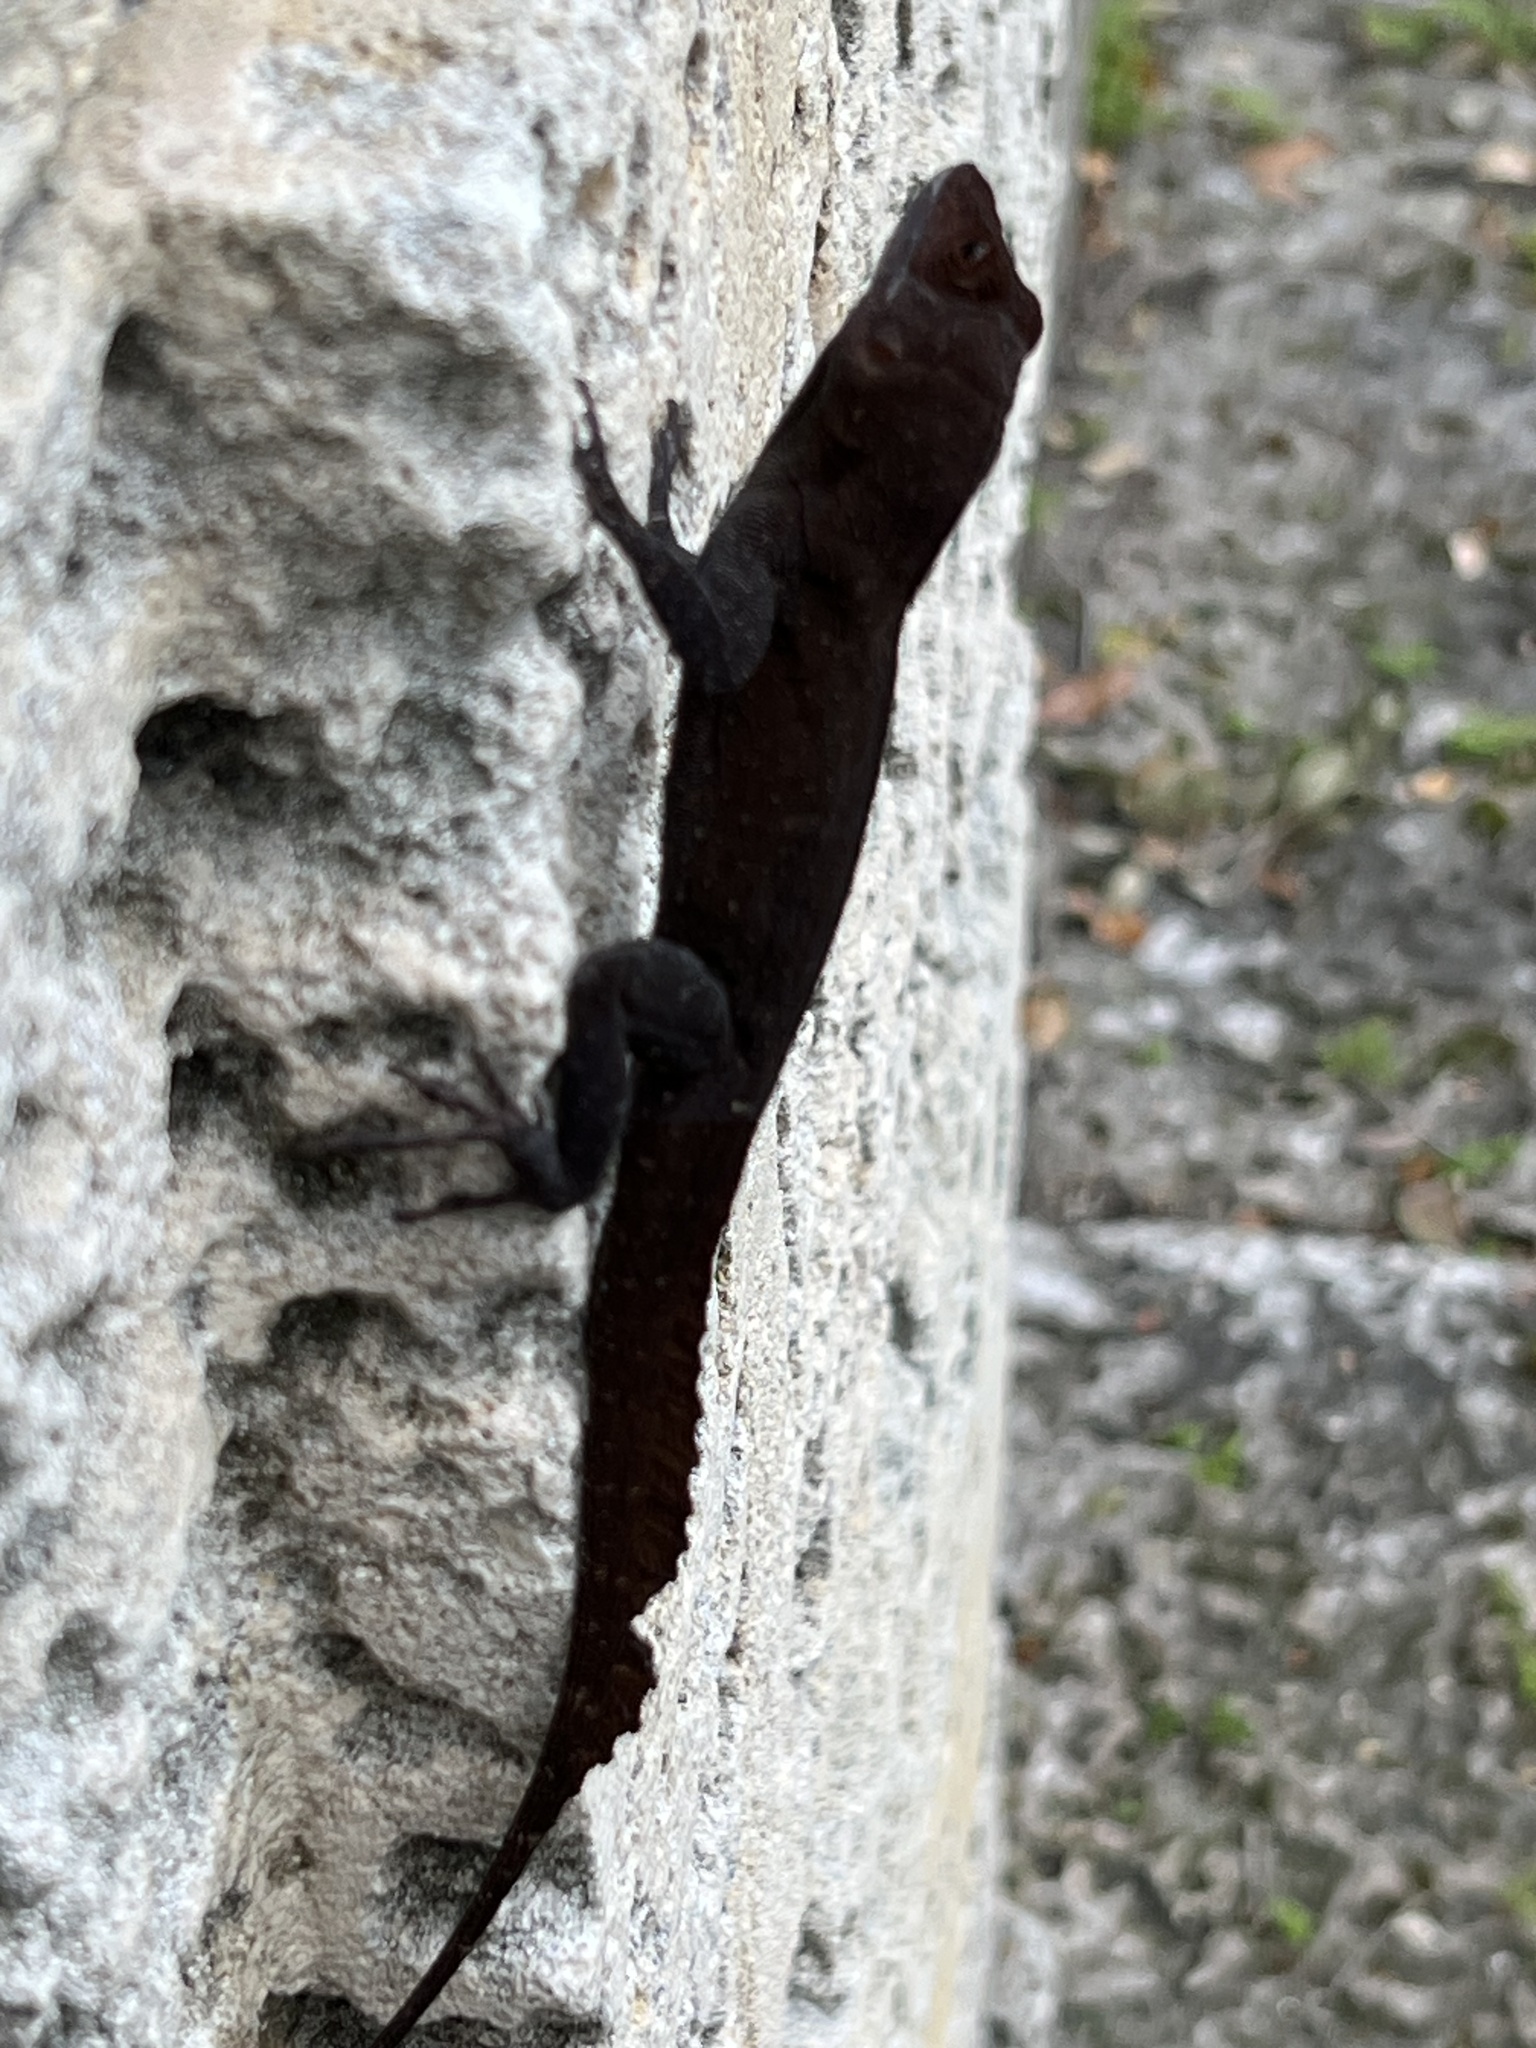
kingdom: Animalia
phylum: Chordata
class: Squamata
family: Dactyloidae
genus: Anolis
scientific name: Anolis cristatellus
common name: Crested anole
